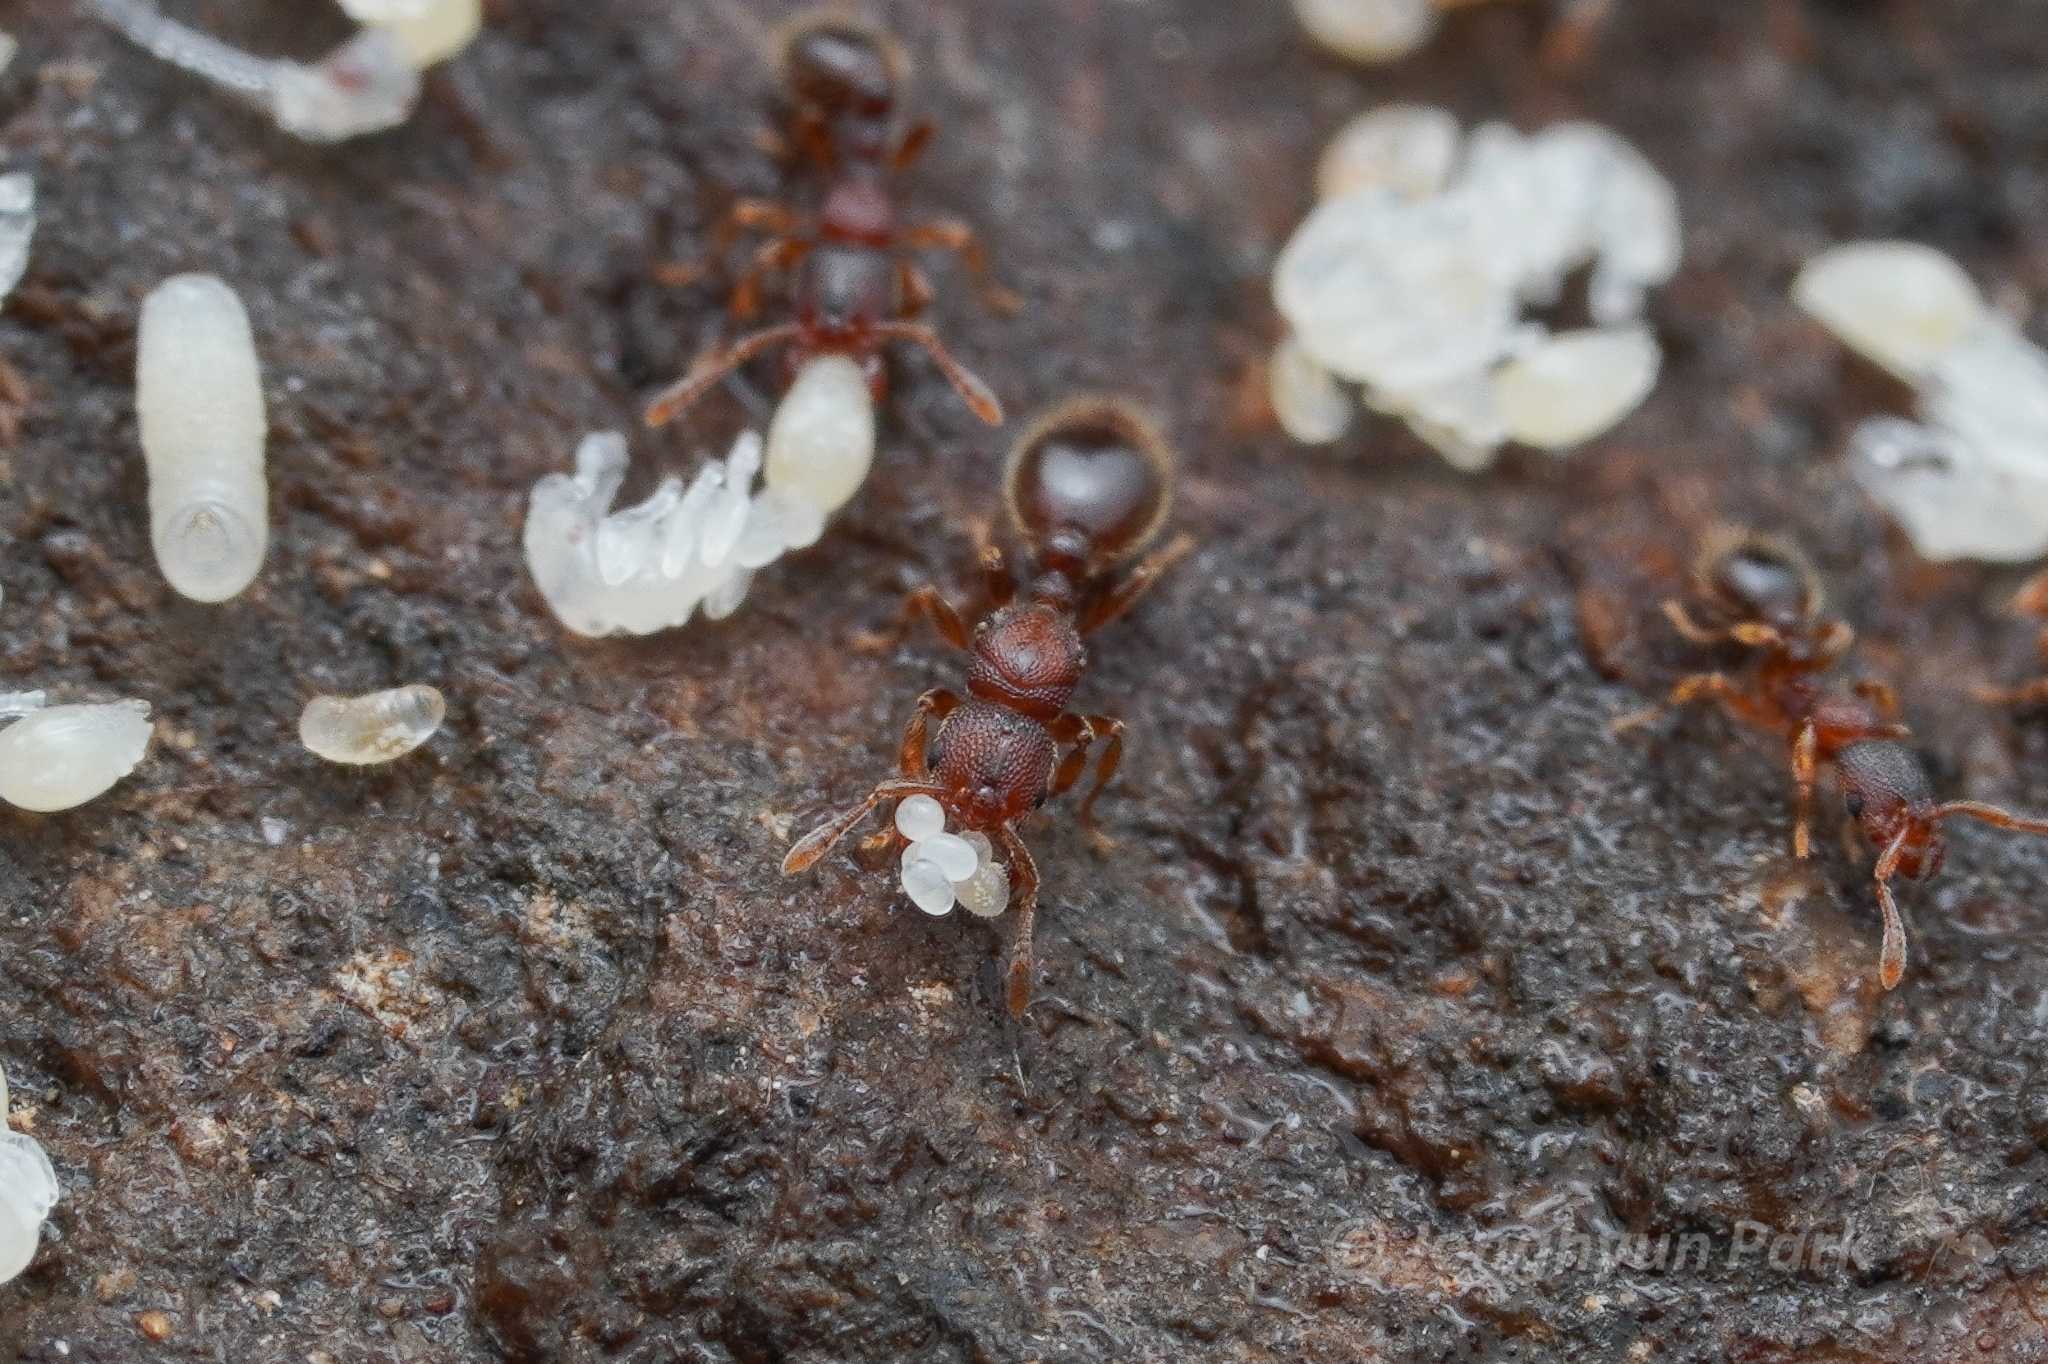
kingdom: Animalia
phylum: Arthropoda
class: Insecta
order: Hymenoptera
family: Formicidae
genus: Vollenhovia
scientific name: Vollenhovia emeryi
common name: Ant
